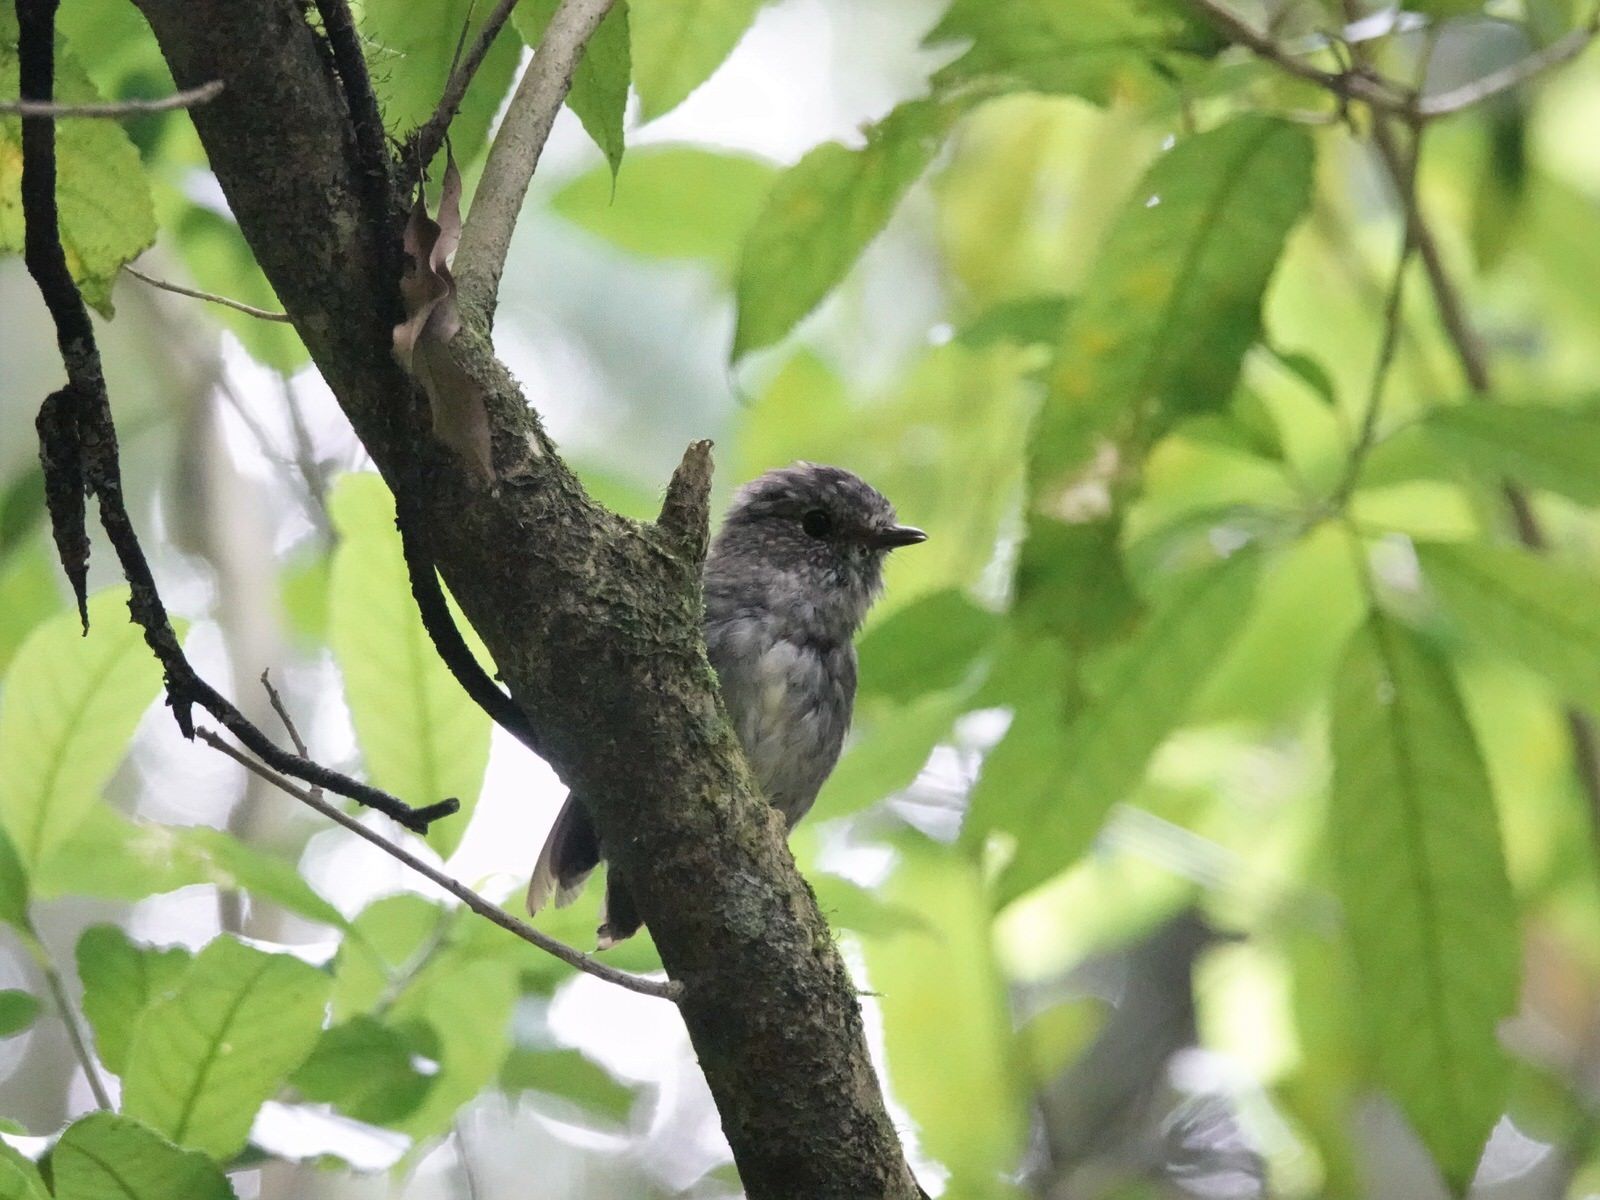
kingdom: Animalia
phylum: Chordata
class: Aves
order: Passeriformes
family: Petroicidae
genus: Petroica
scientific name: Petroica australis
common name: New zealand robin
